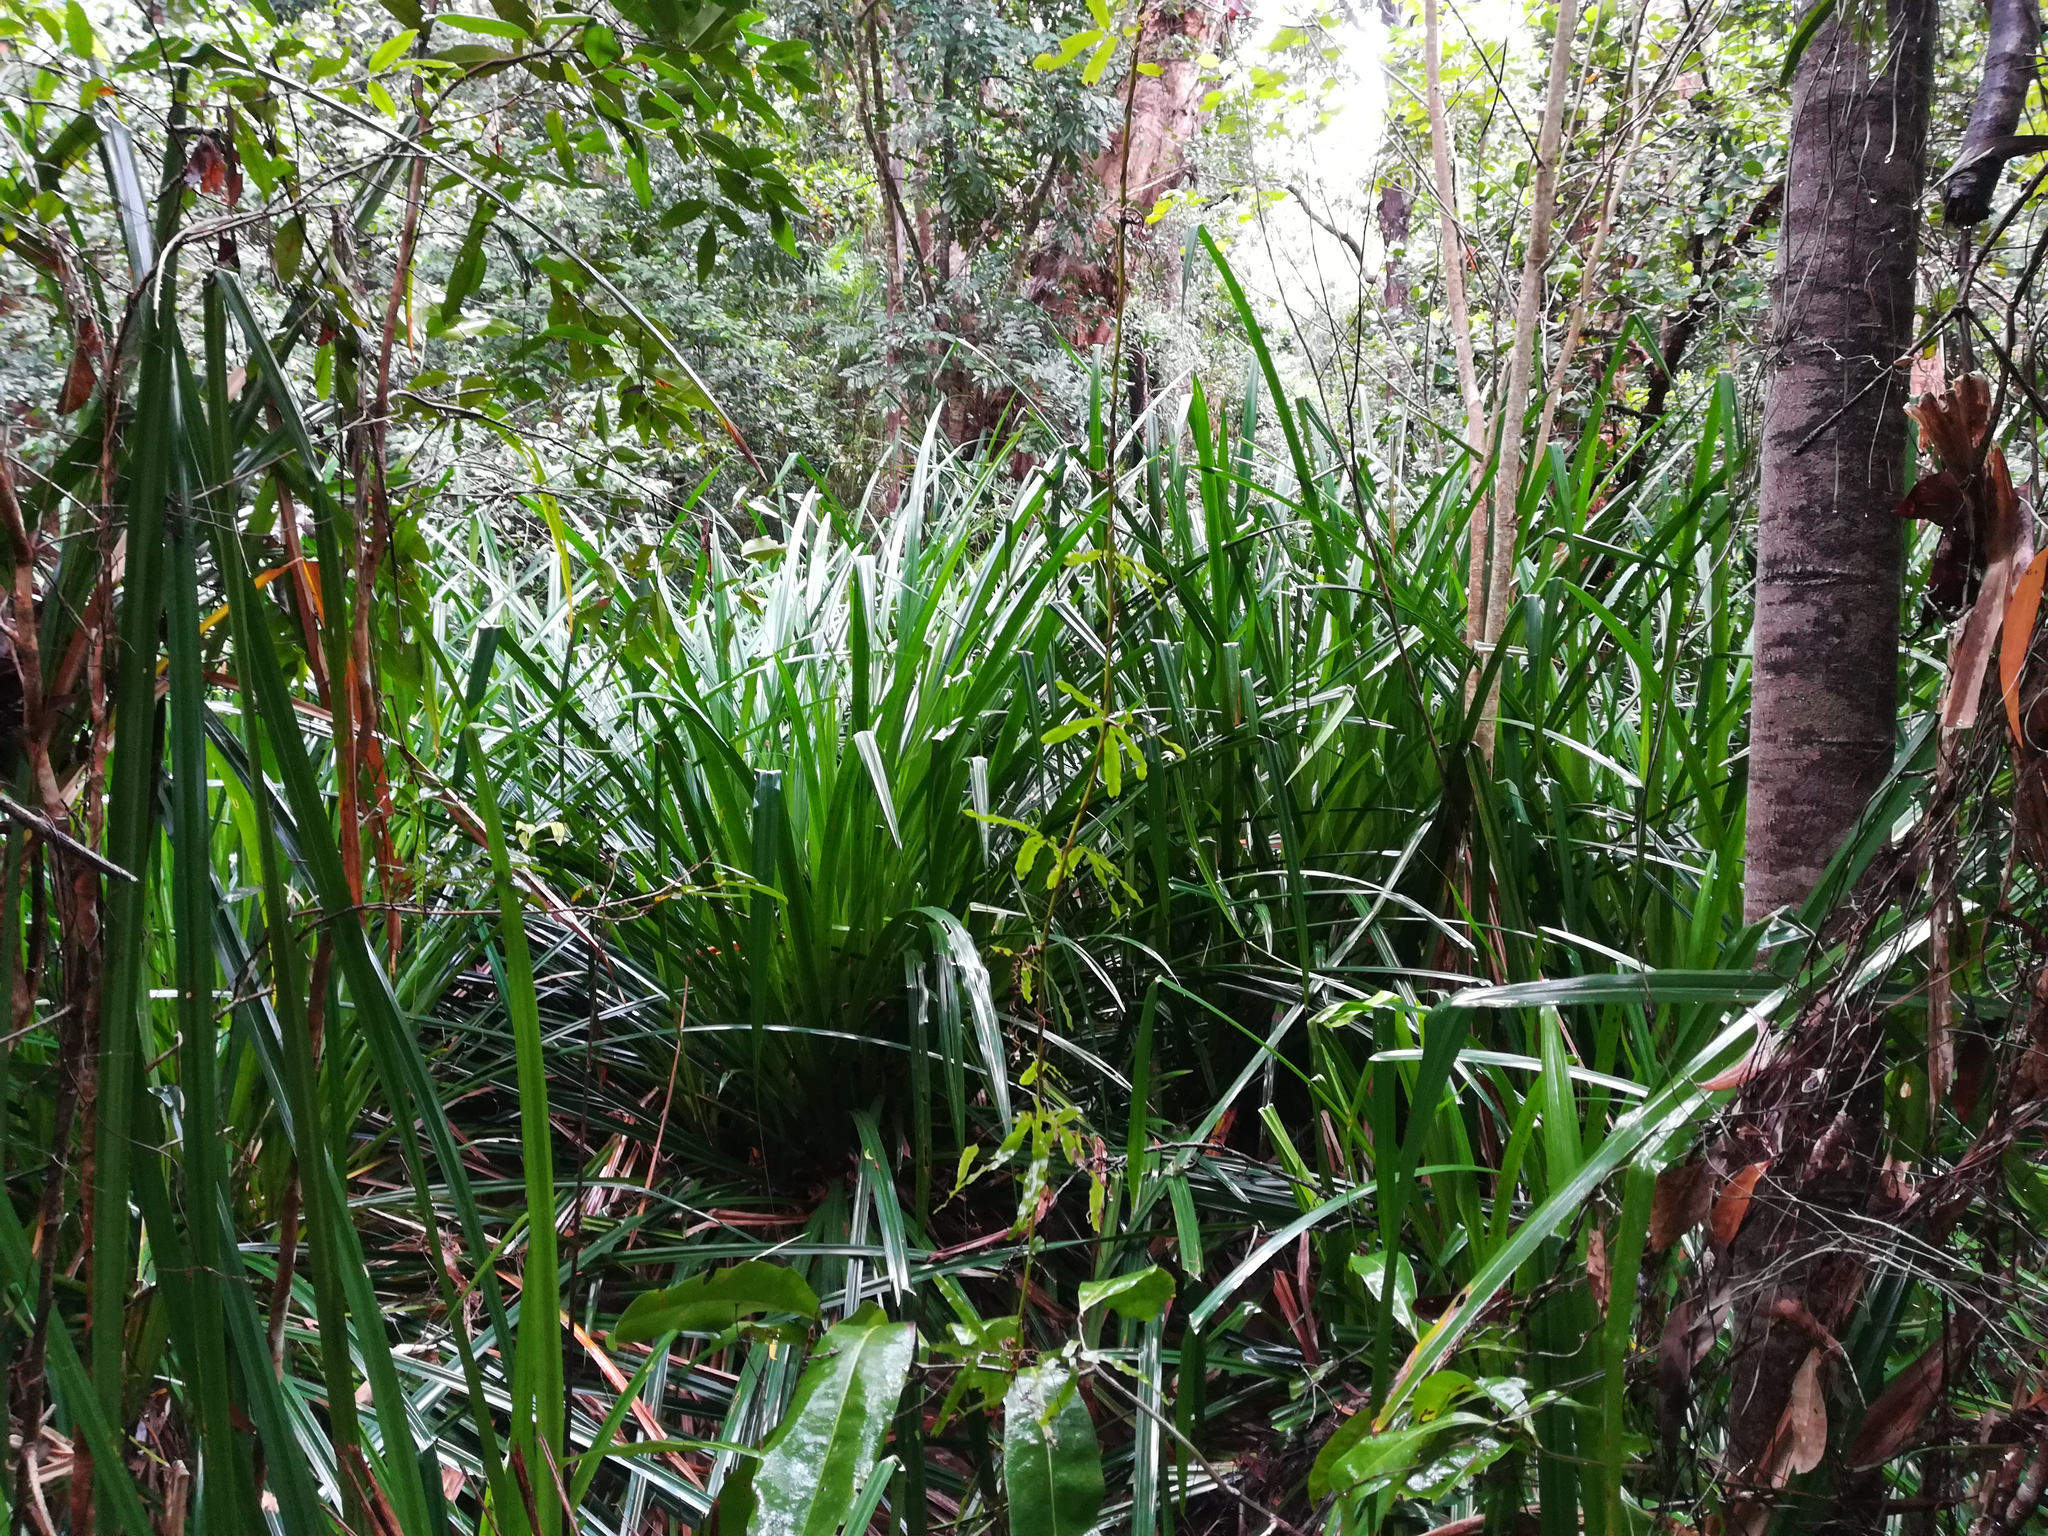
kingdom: Plantae
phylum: Tracheophyta
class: Liliopsida
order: Poales
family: Cyperaceae
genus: Scirpodendron
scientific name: Scirpodendron ghaeri
